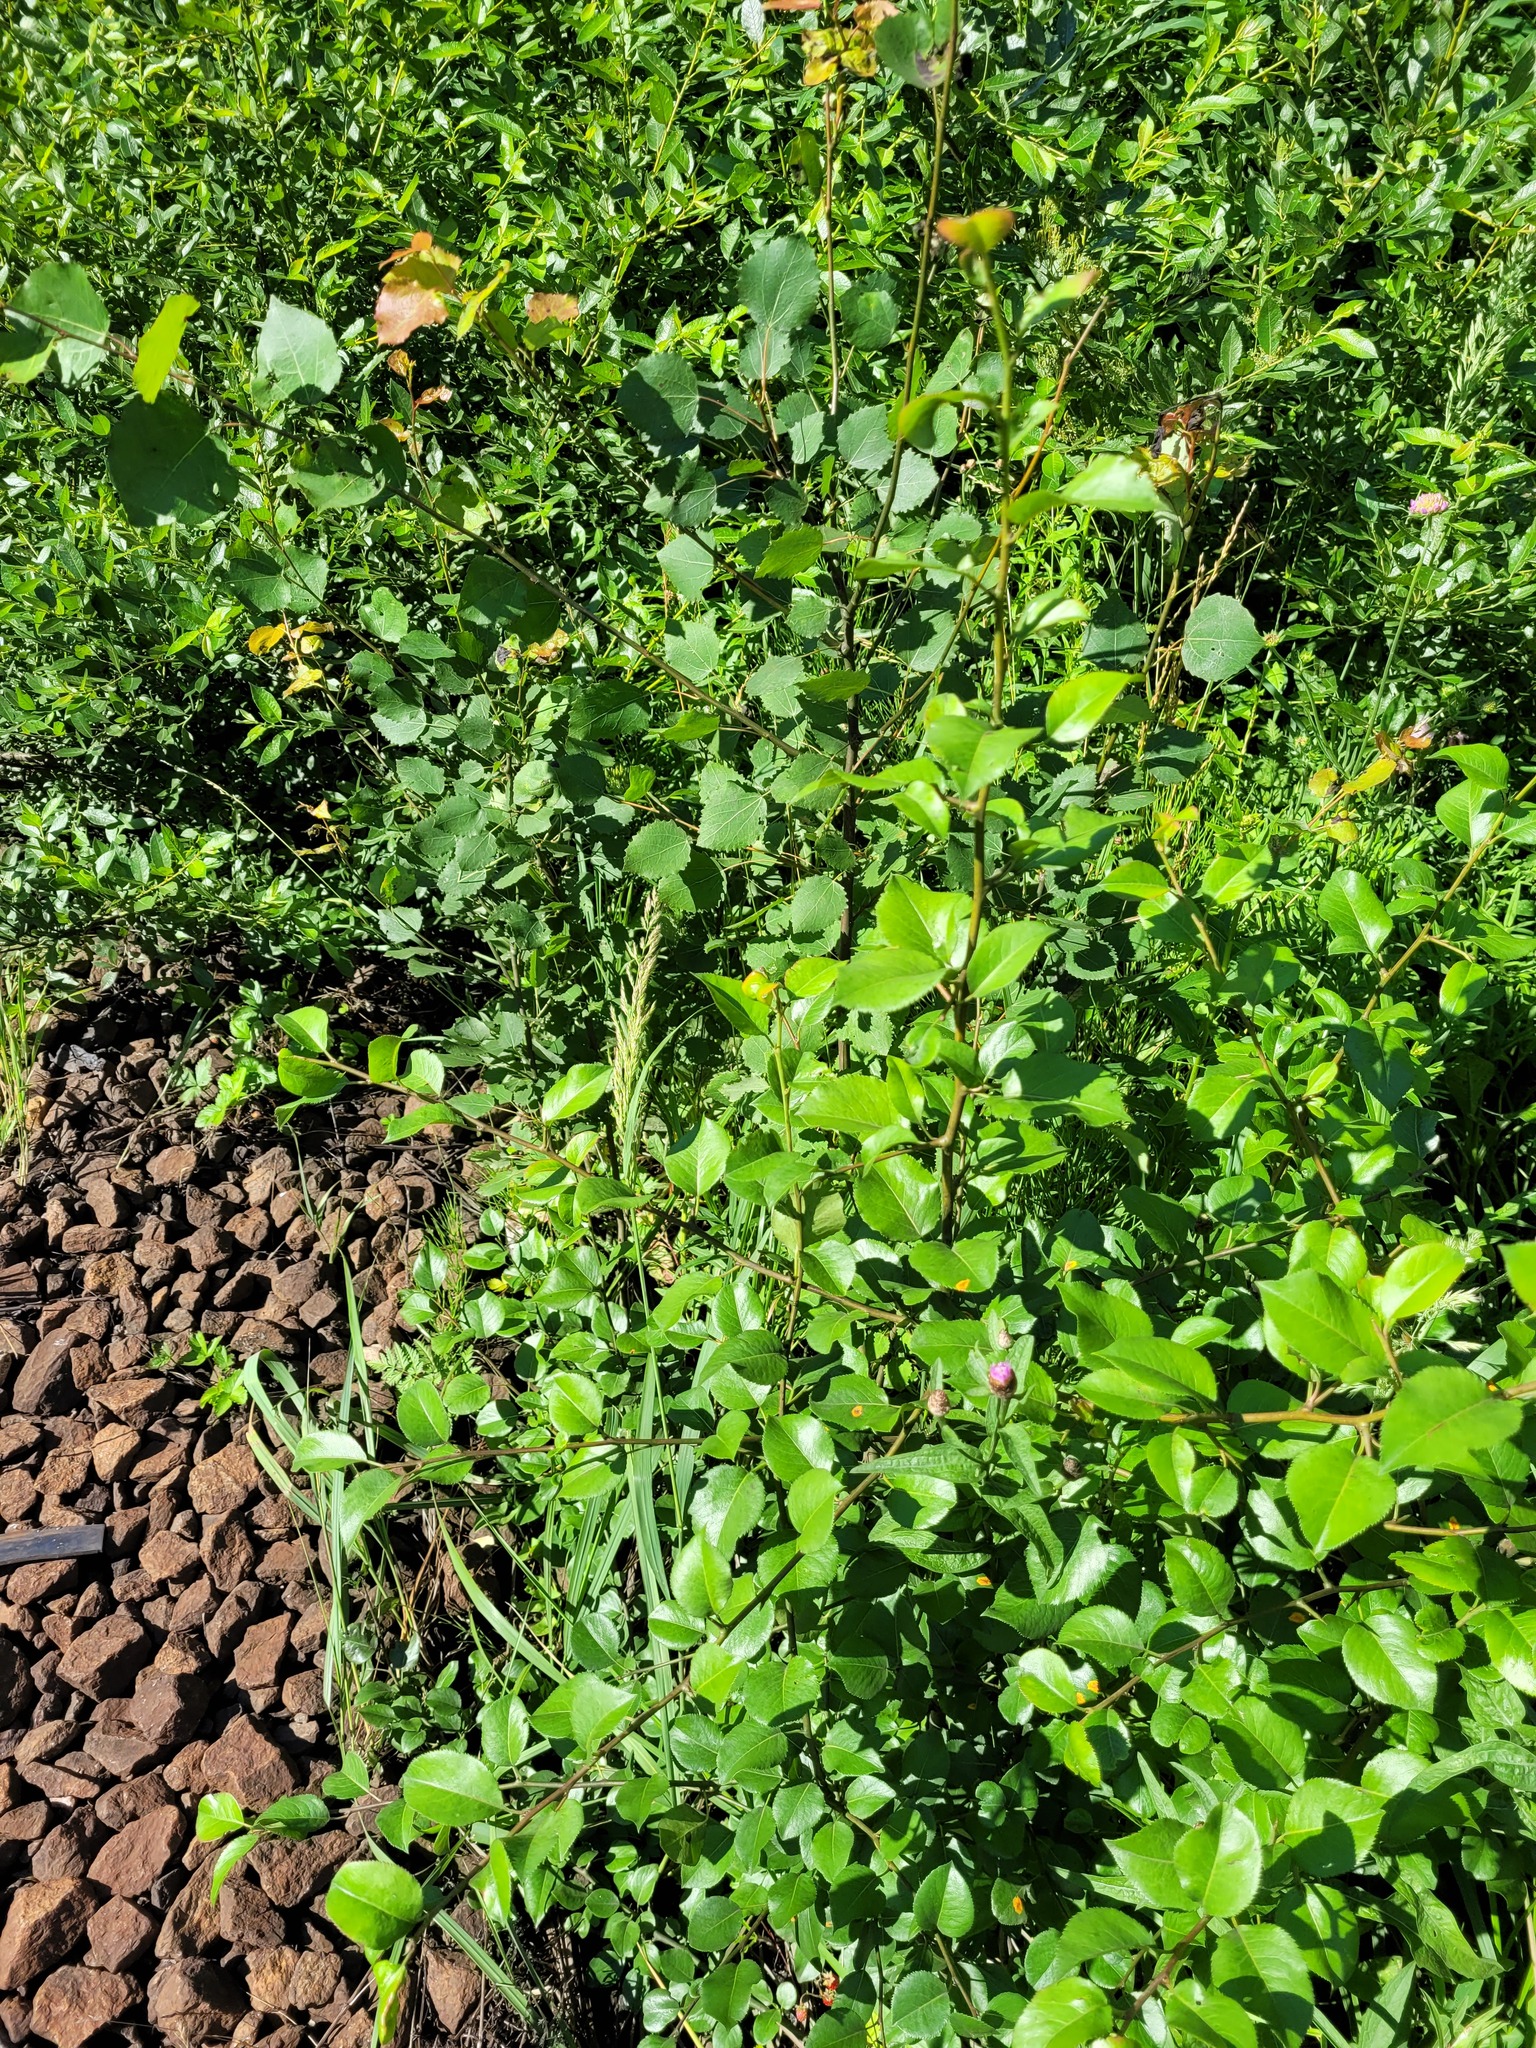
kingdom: Plantae
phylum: Tracheophyta
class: Magnoliopsida
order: Rosales
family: Rosaceae
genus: Pyrus
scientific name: Pyrus communis
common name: Pear
